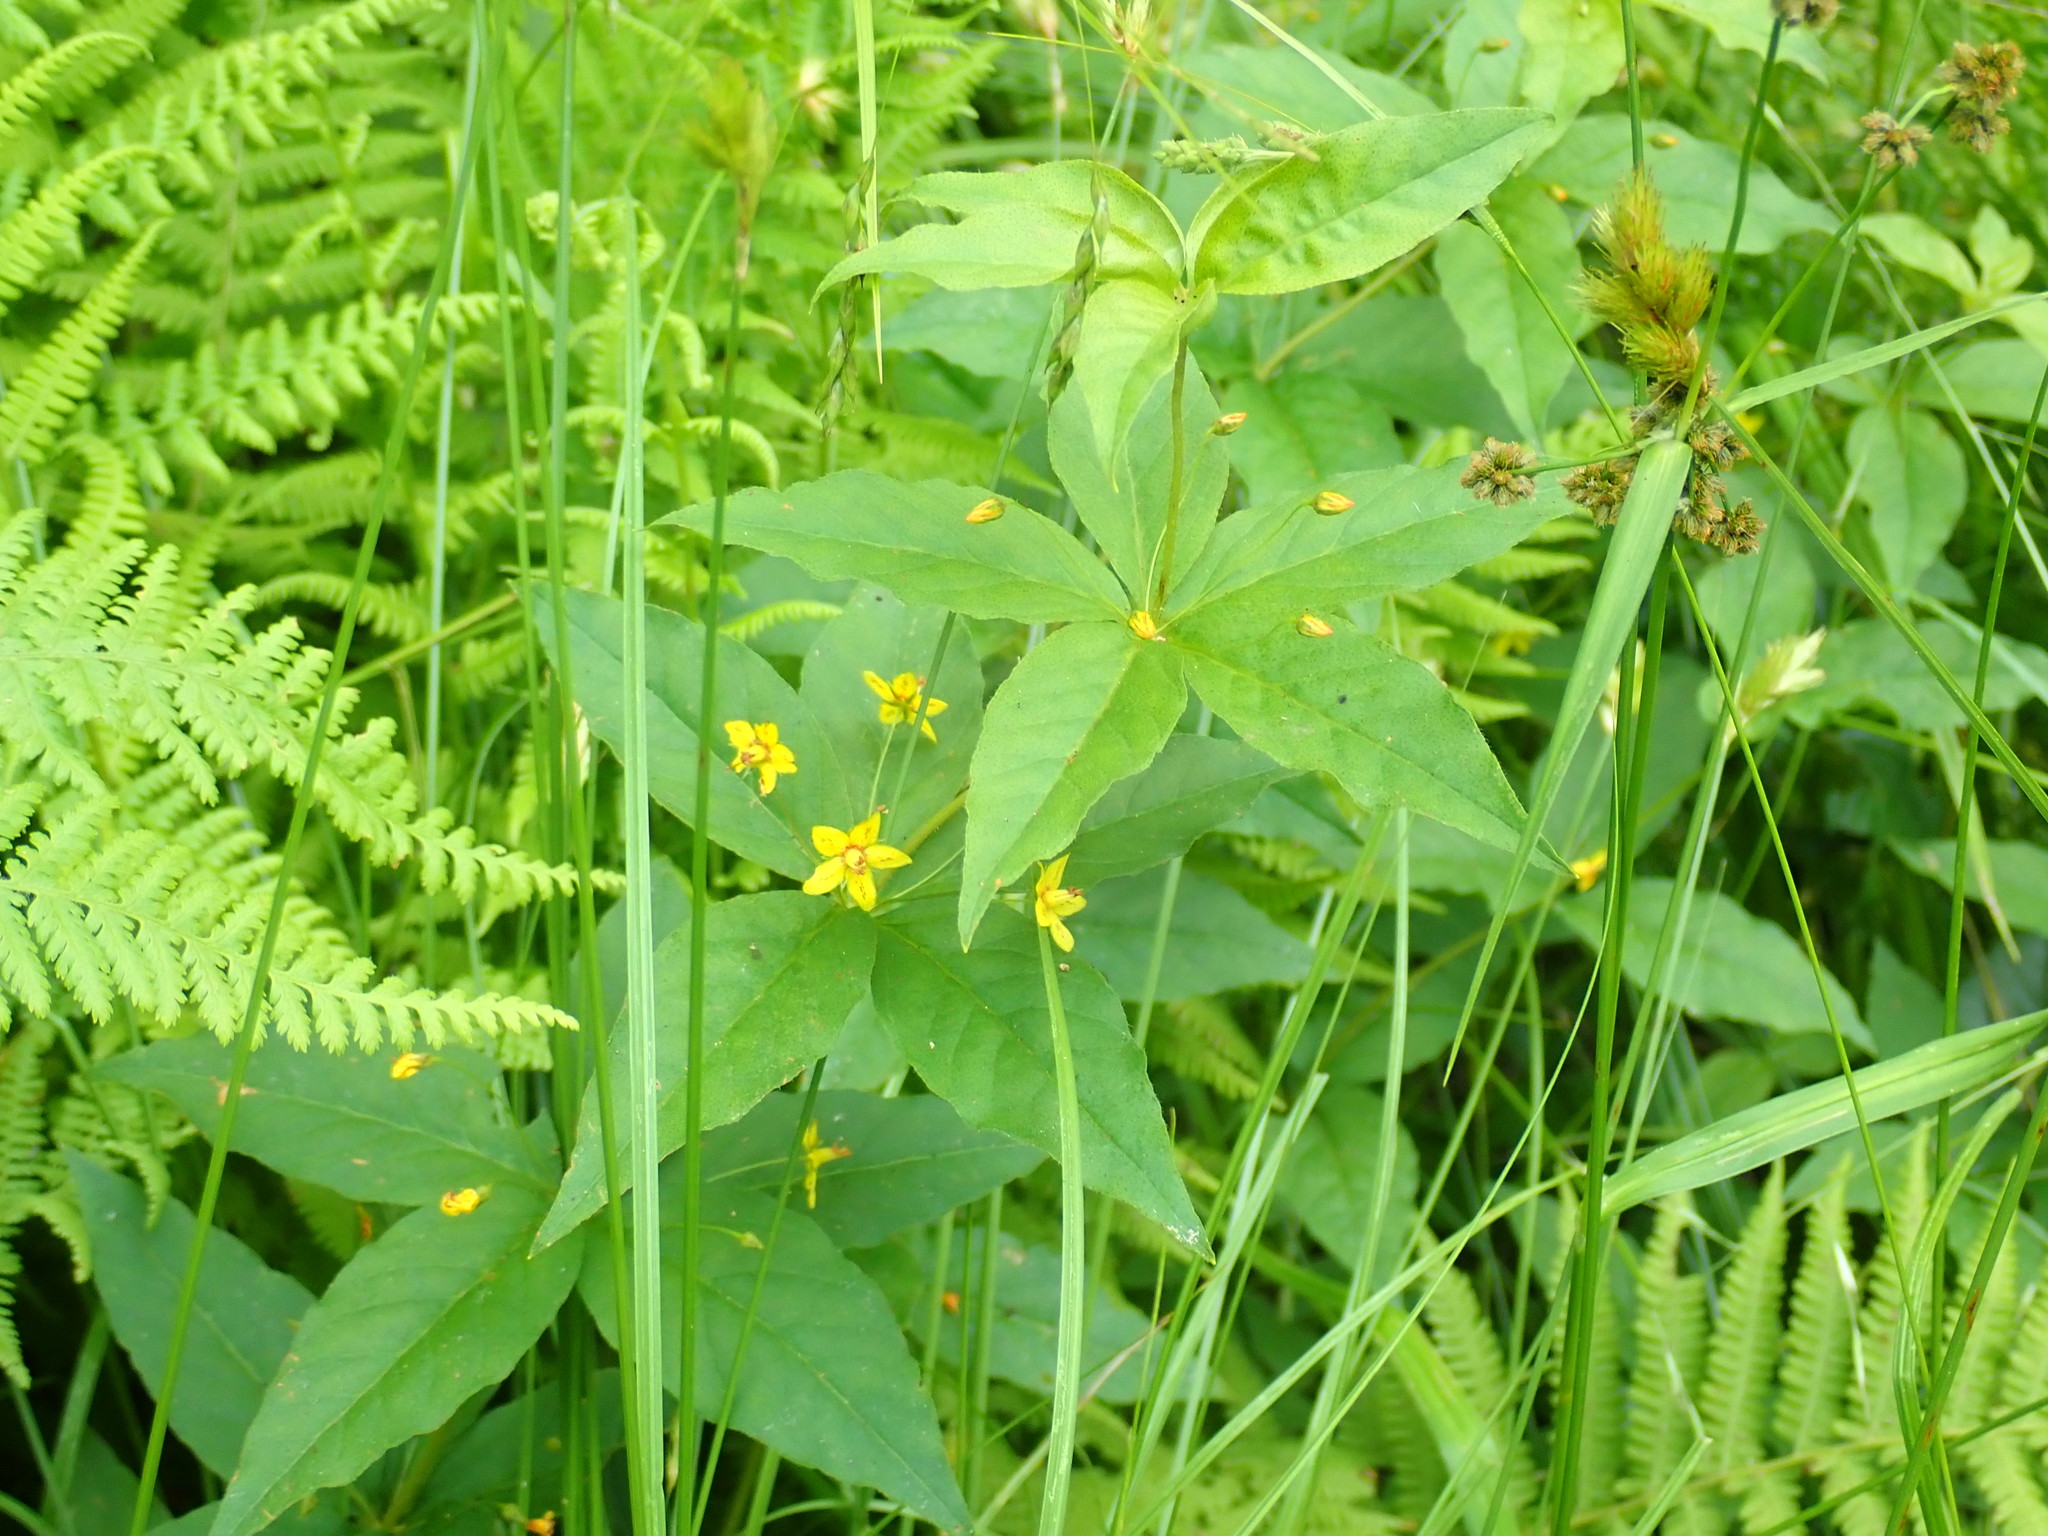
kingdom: Plantae
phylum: Tracheophyta
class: Magnoliopsida
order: Ericales
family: Primulaceae
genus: Lysimachia
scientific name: Lysimachia quadrifolia
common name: Whorled loosestrife
